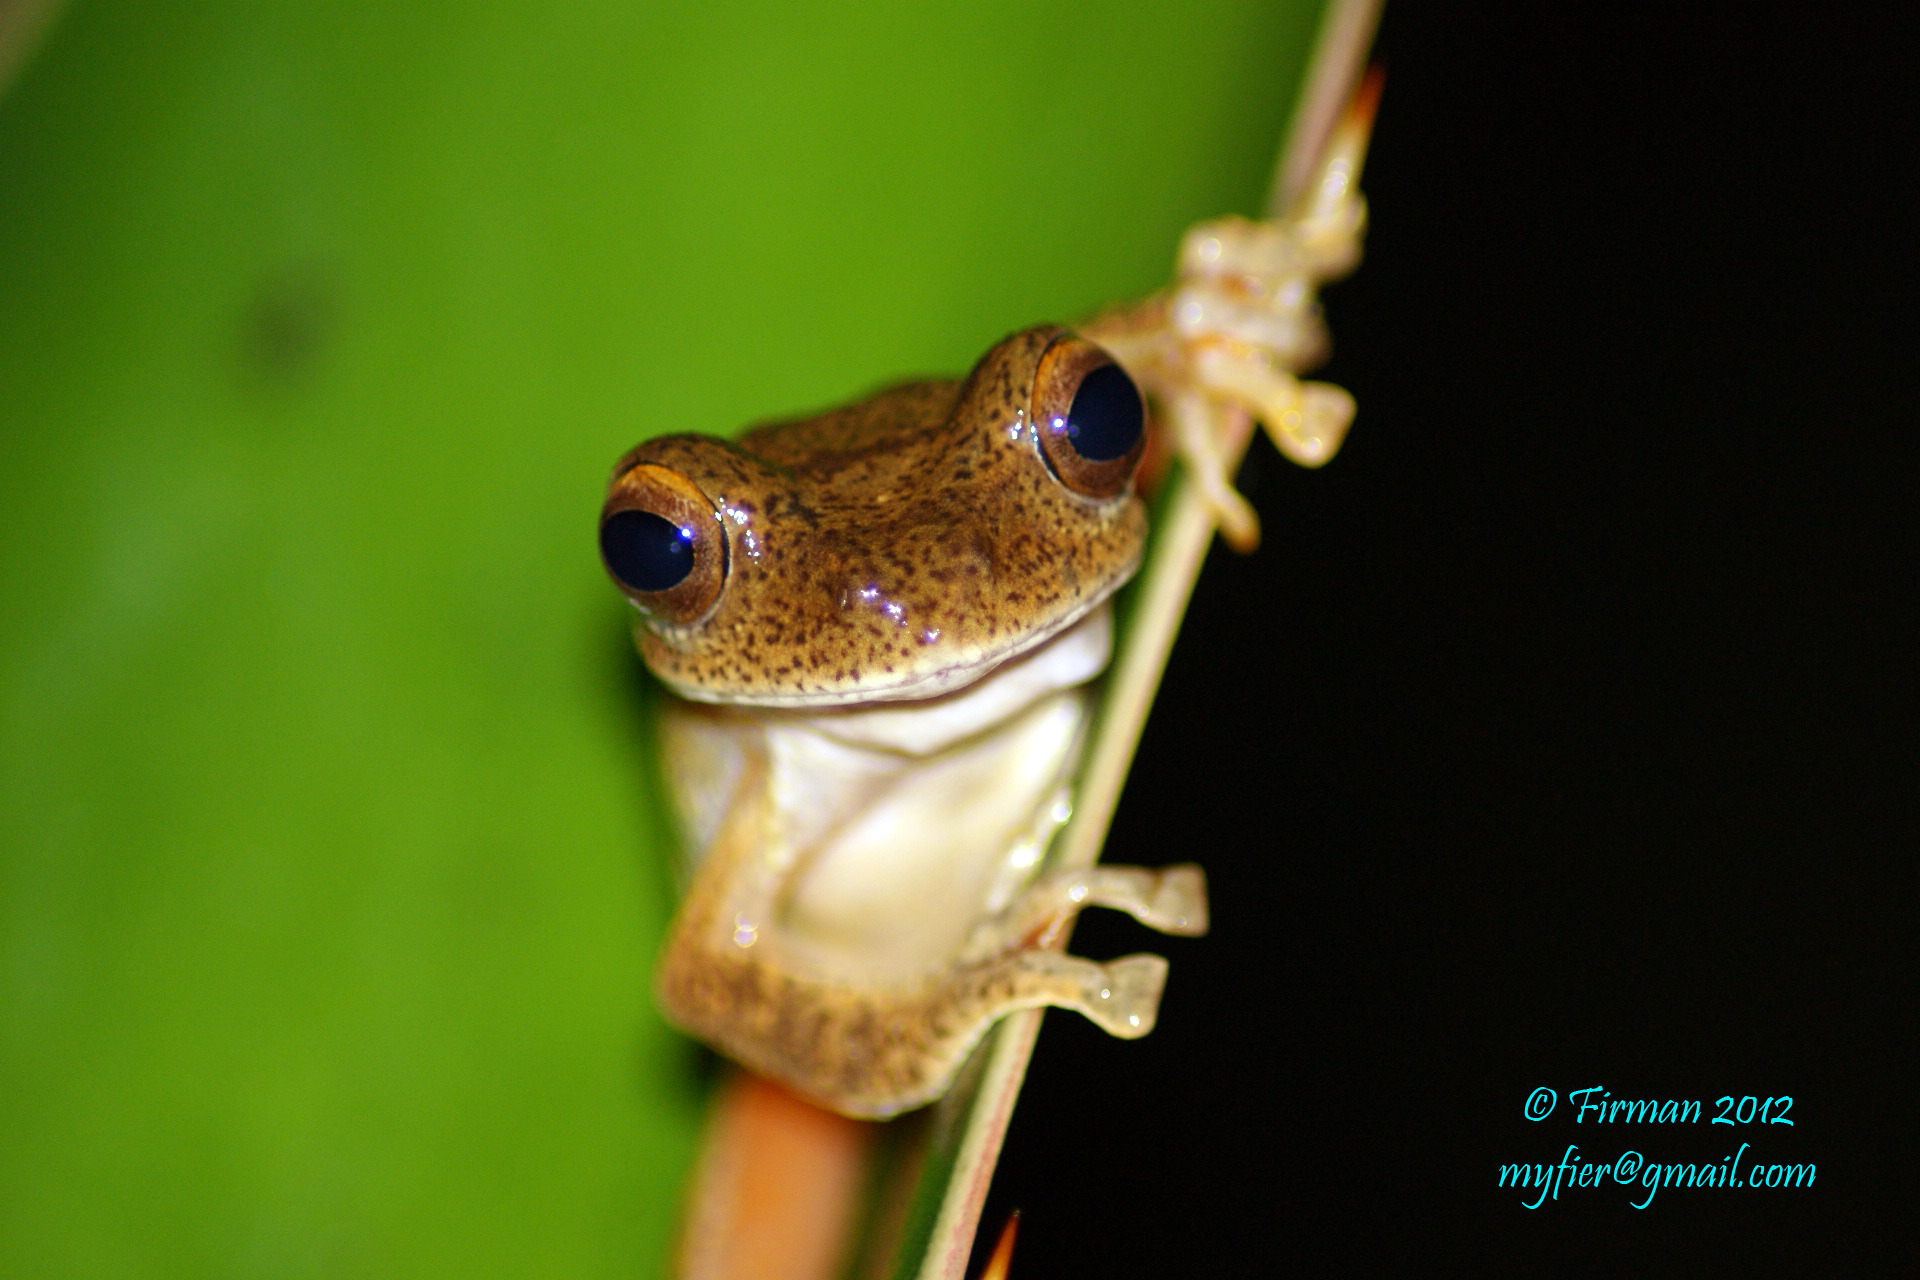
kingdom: Animalia
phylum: Chordata
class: Amphibia
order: Anura
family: Rhacophoridae
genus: Rhacophorus
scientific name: Rhacophorus margaritifer
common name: Java flying frog
